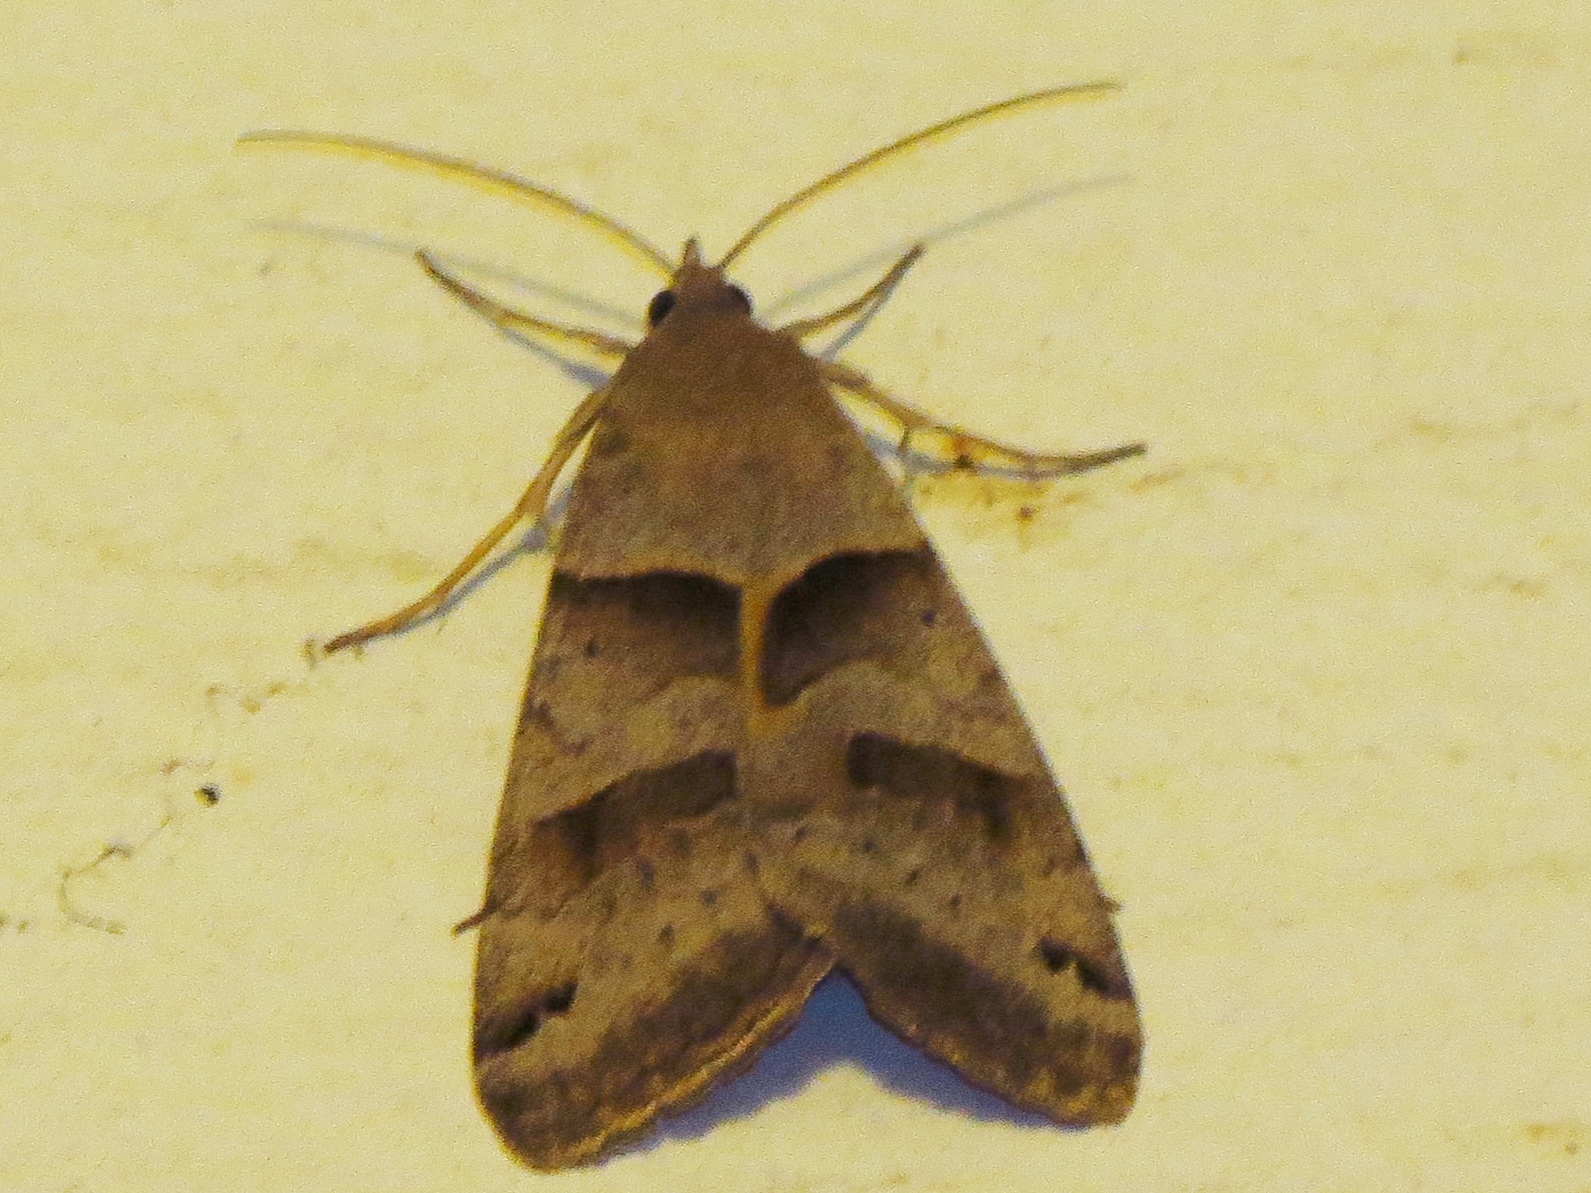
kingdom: Animalia
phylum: Arthropoda
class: Insecta
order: Lepidoptera
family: Erebidae
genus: Caenurgina
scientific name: Caenurgina erechtea
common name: Forage looper moth
